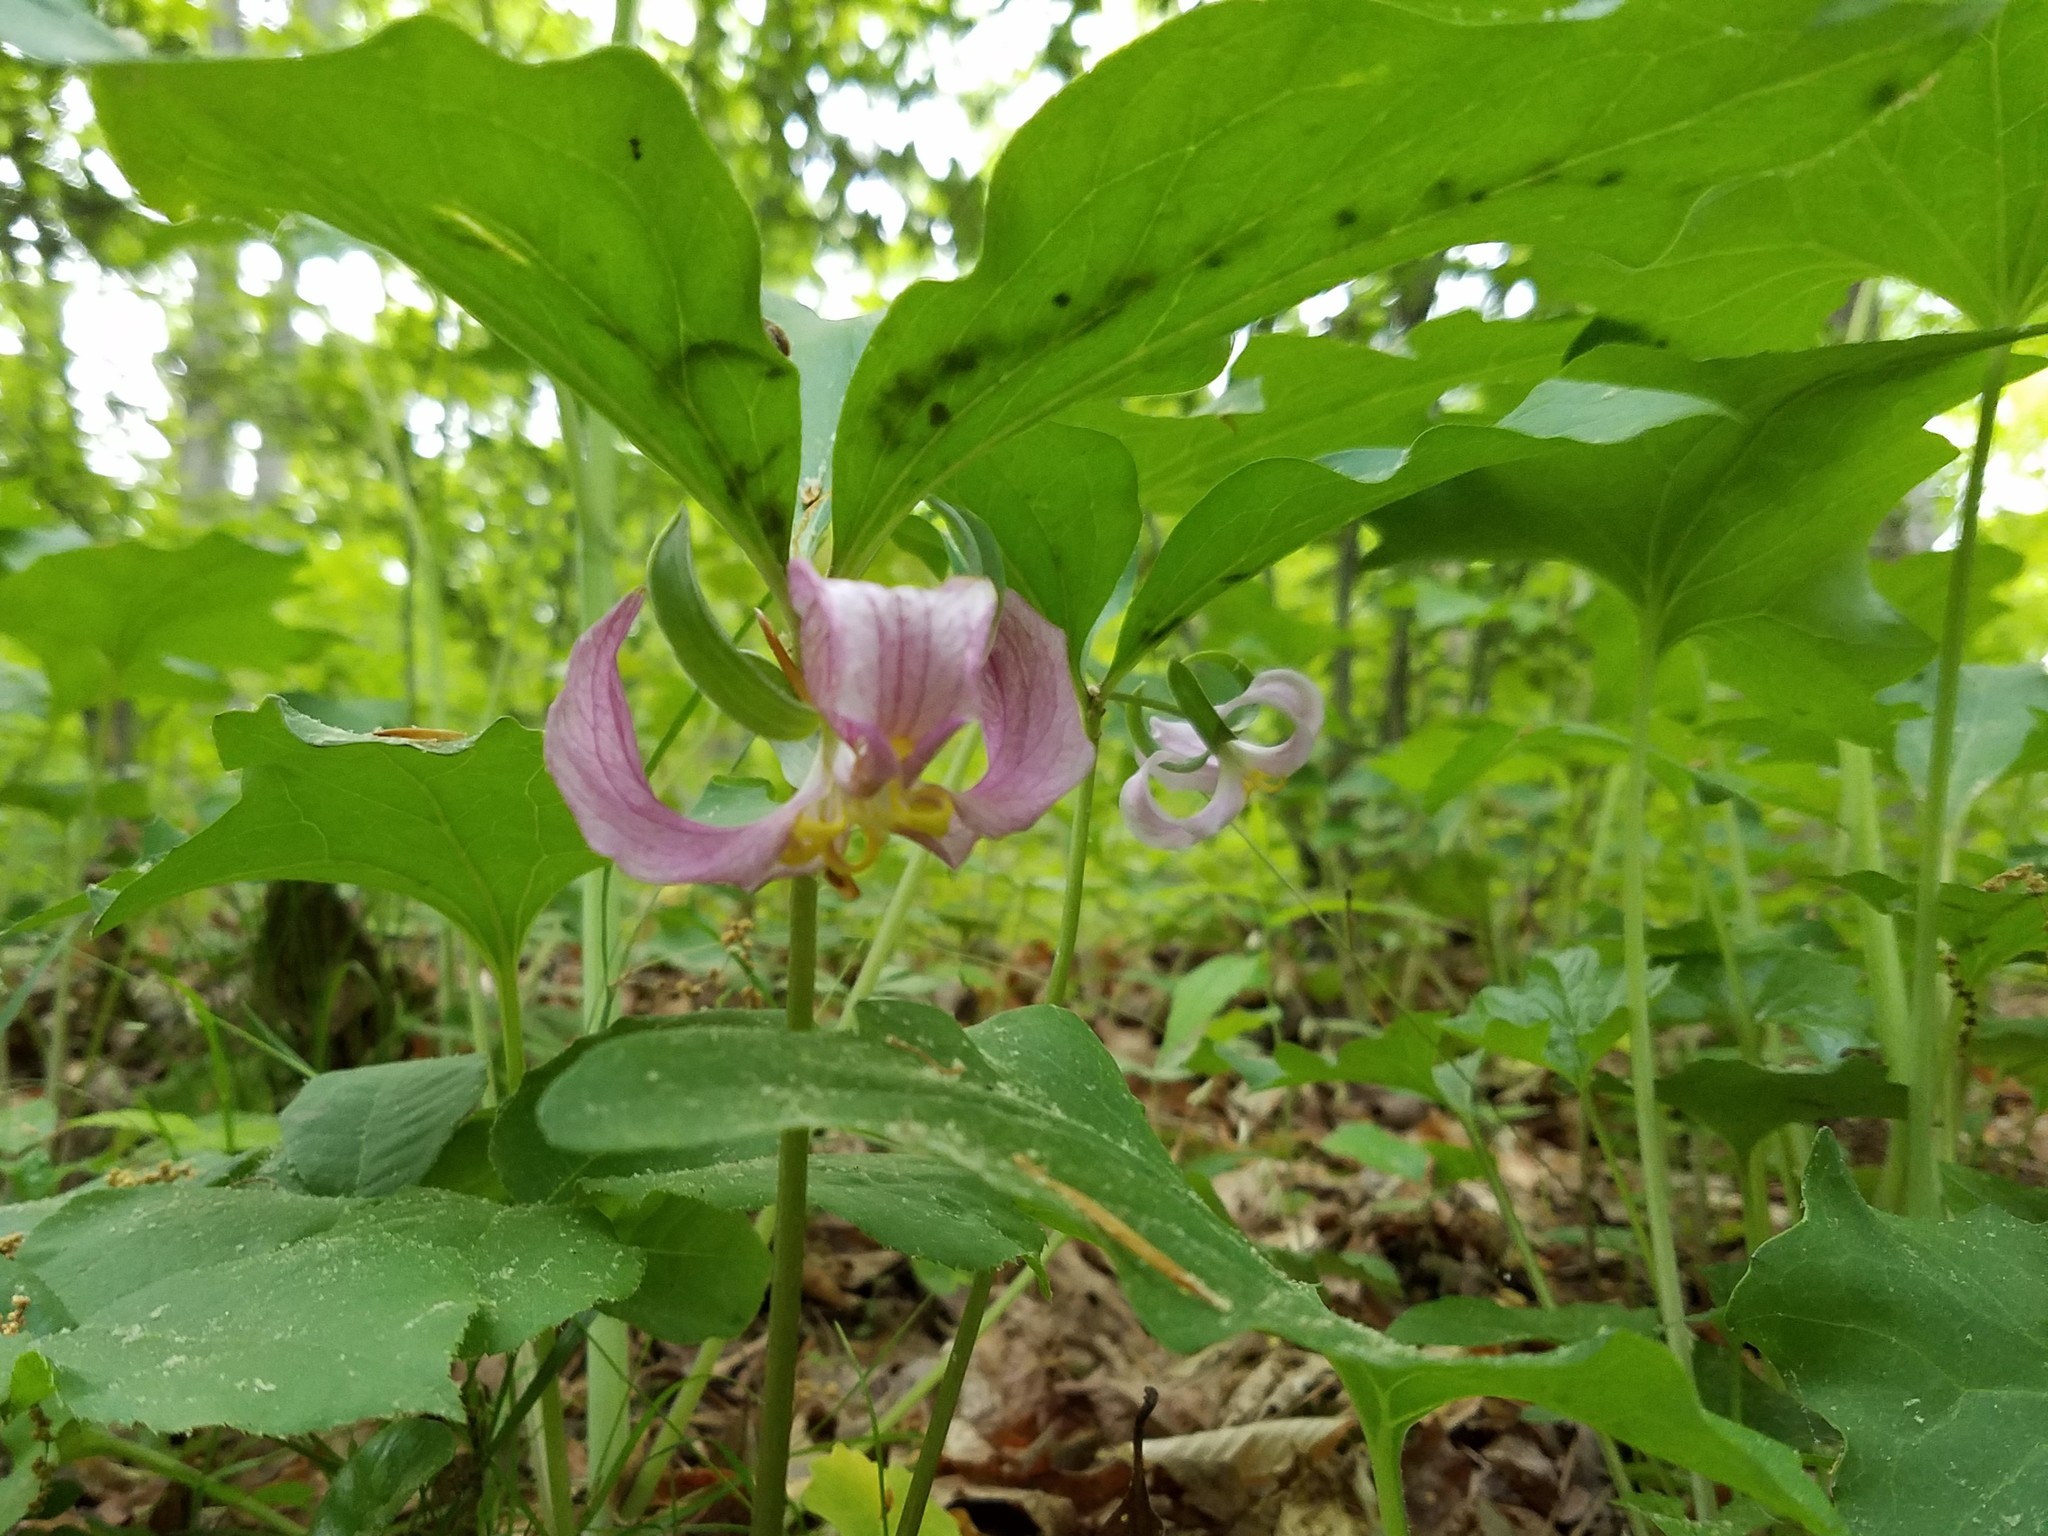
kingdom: Plantae
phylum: Tracheophyta
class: Liliopsida
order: Liliales
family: Melanthiaceae
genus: Trillium
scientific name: Trillium catesbaei
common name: Bashful trillium
